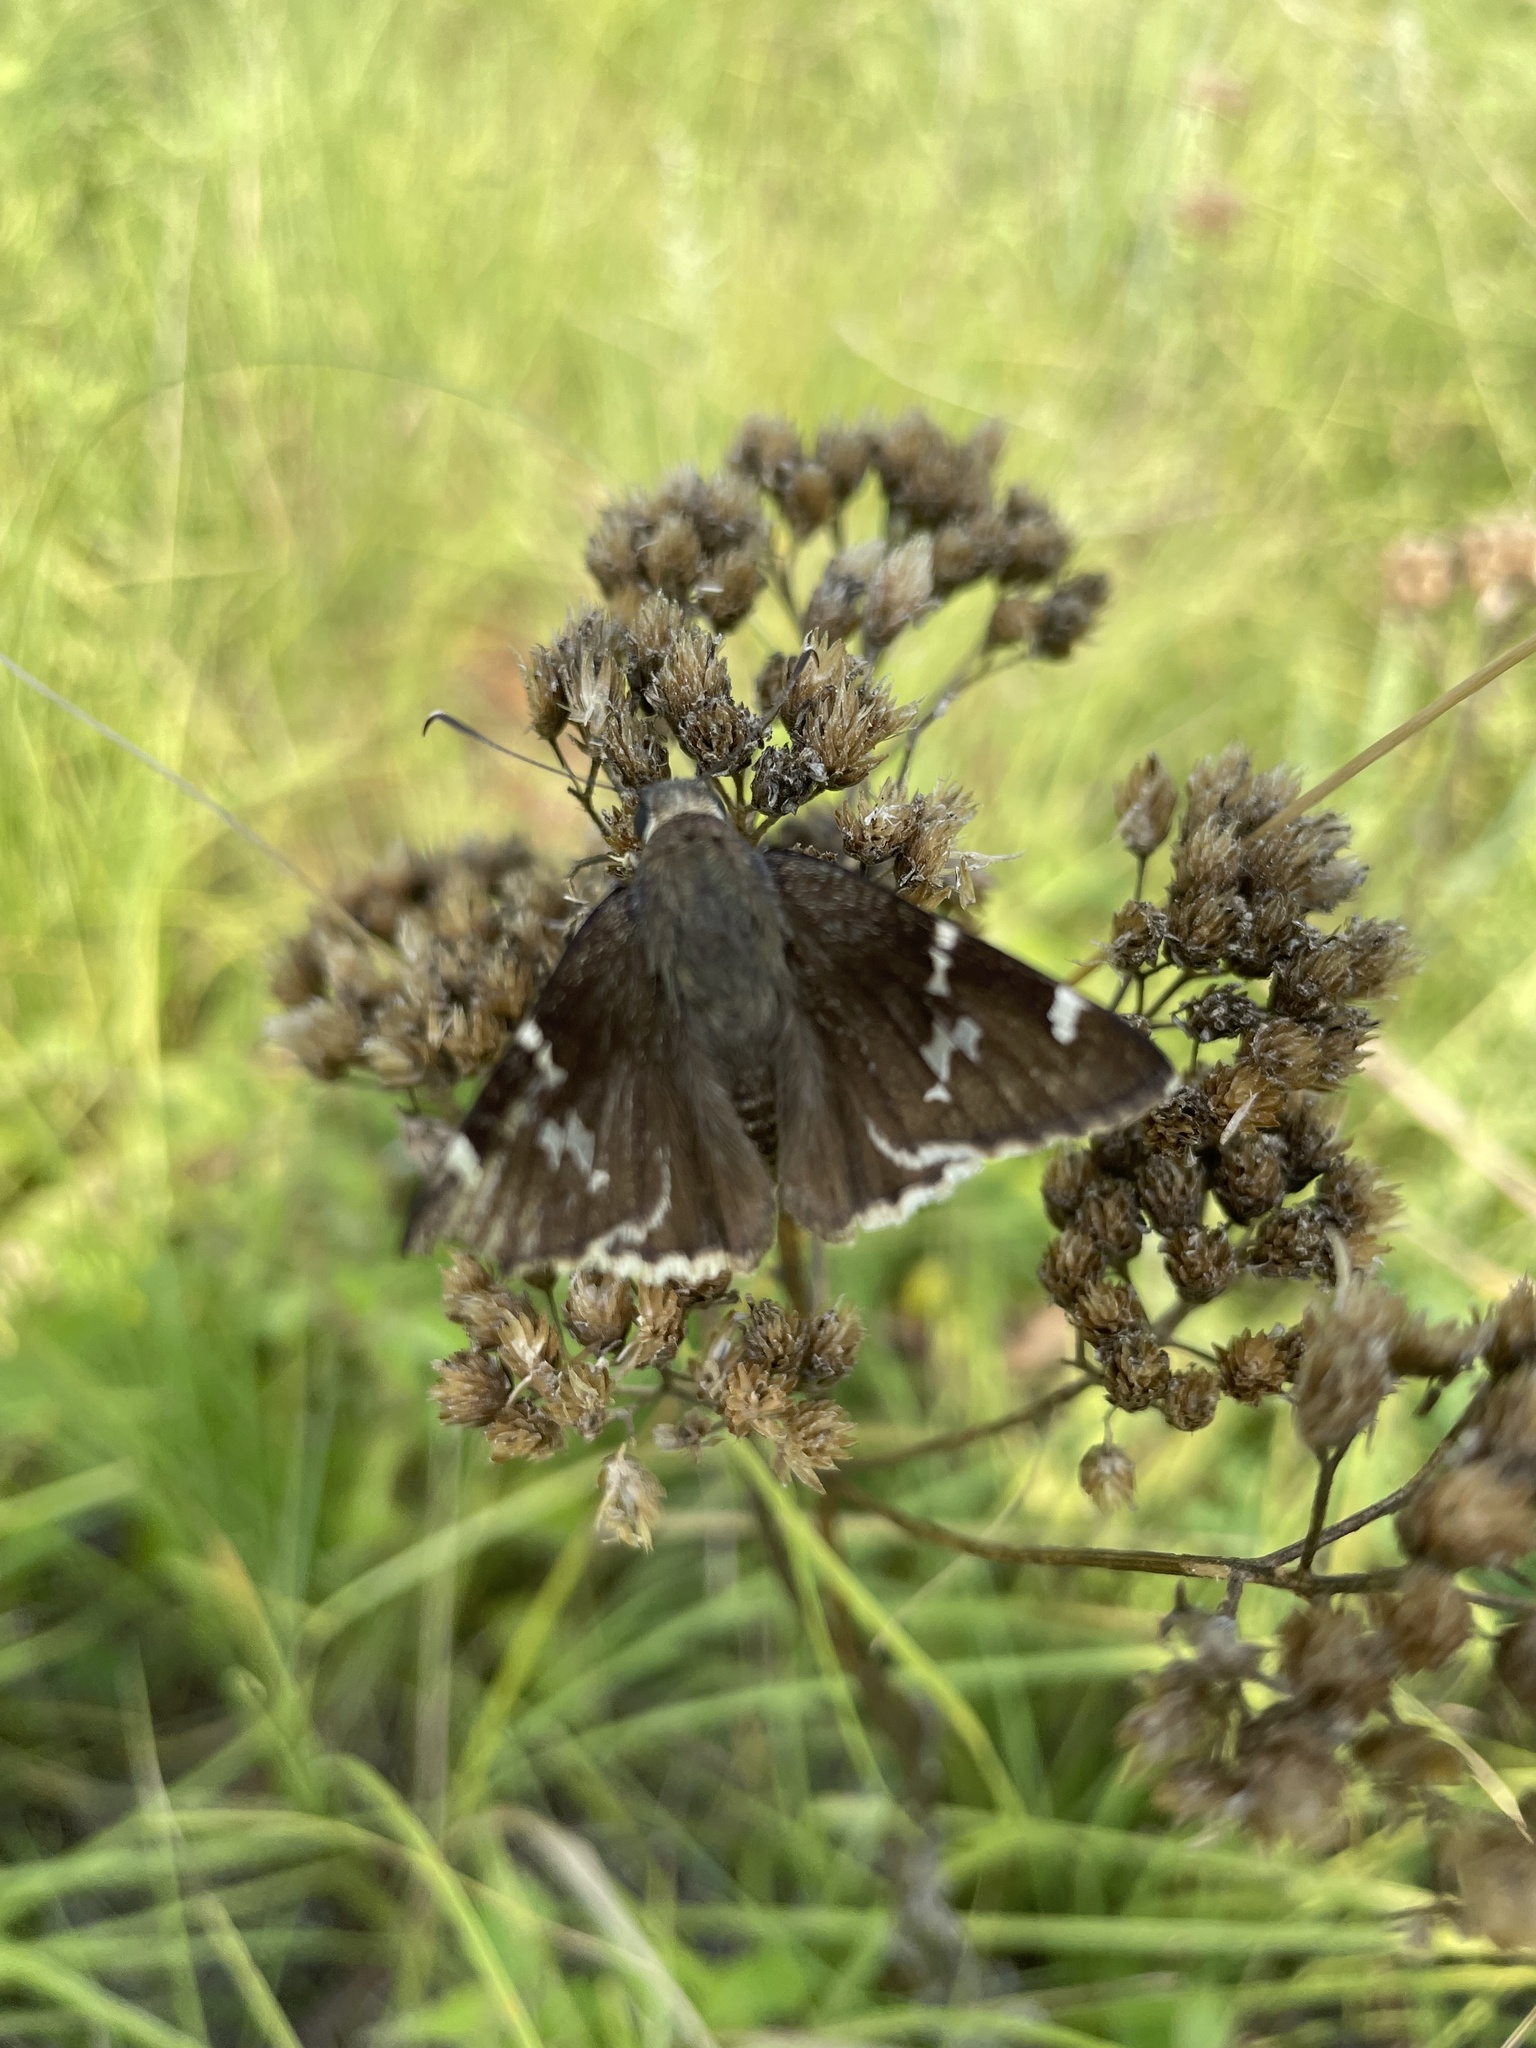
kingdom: Animalia
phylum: Arthropoda
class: Insecta
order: Lepidoptera
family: Hesperiidae
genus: Thorybes
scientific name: Thorybes daunus
